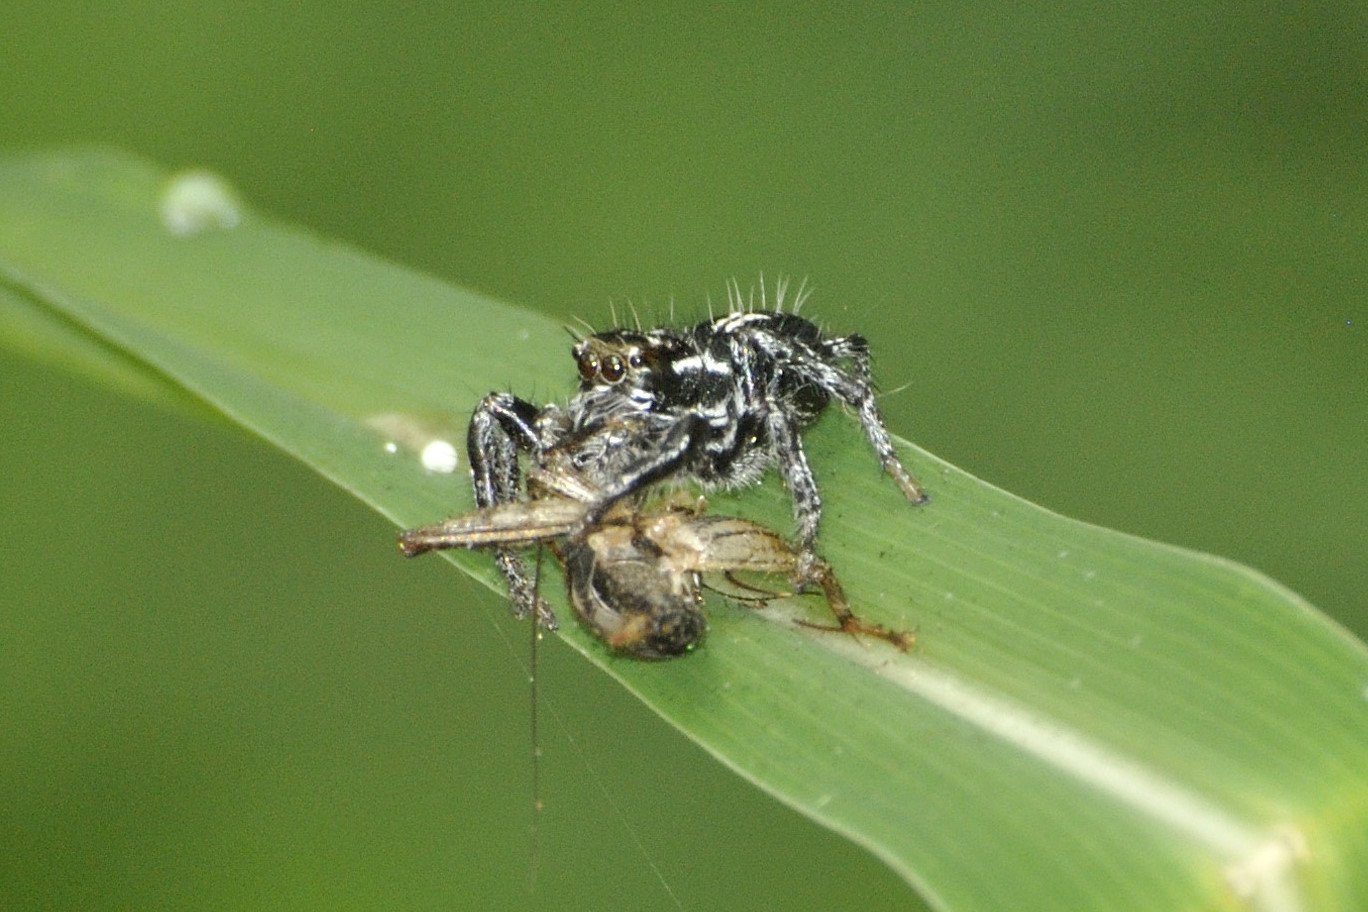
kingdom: Animalia
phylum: Arthropoda
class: Arachnida
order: Araneae
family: Salticidae
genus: Hyllus
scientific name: Hyllus argyrotoxus
